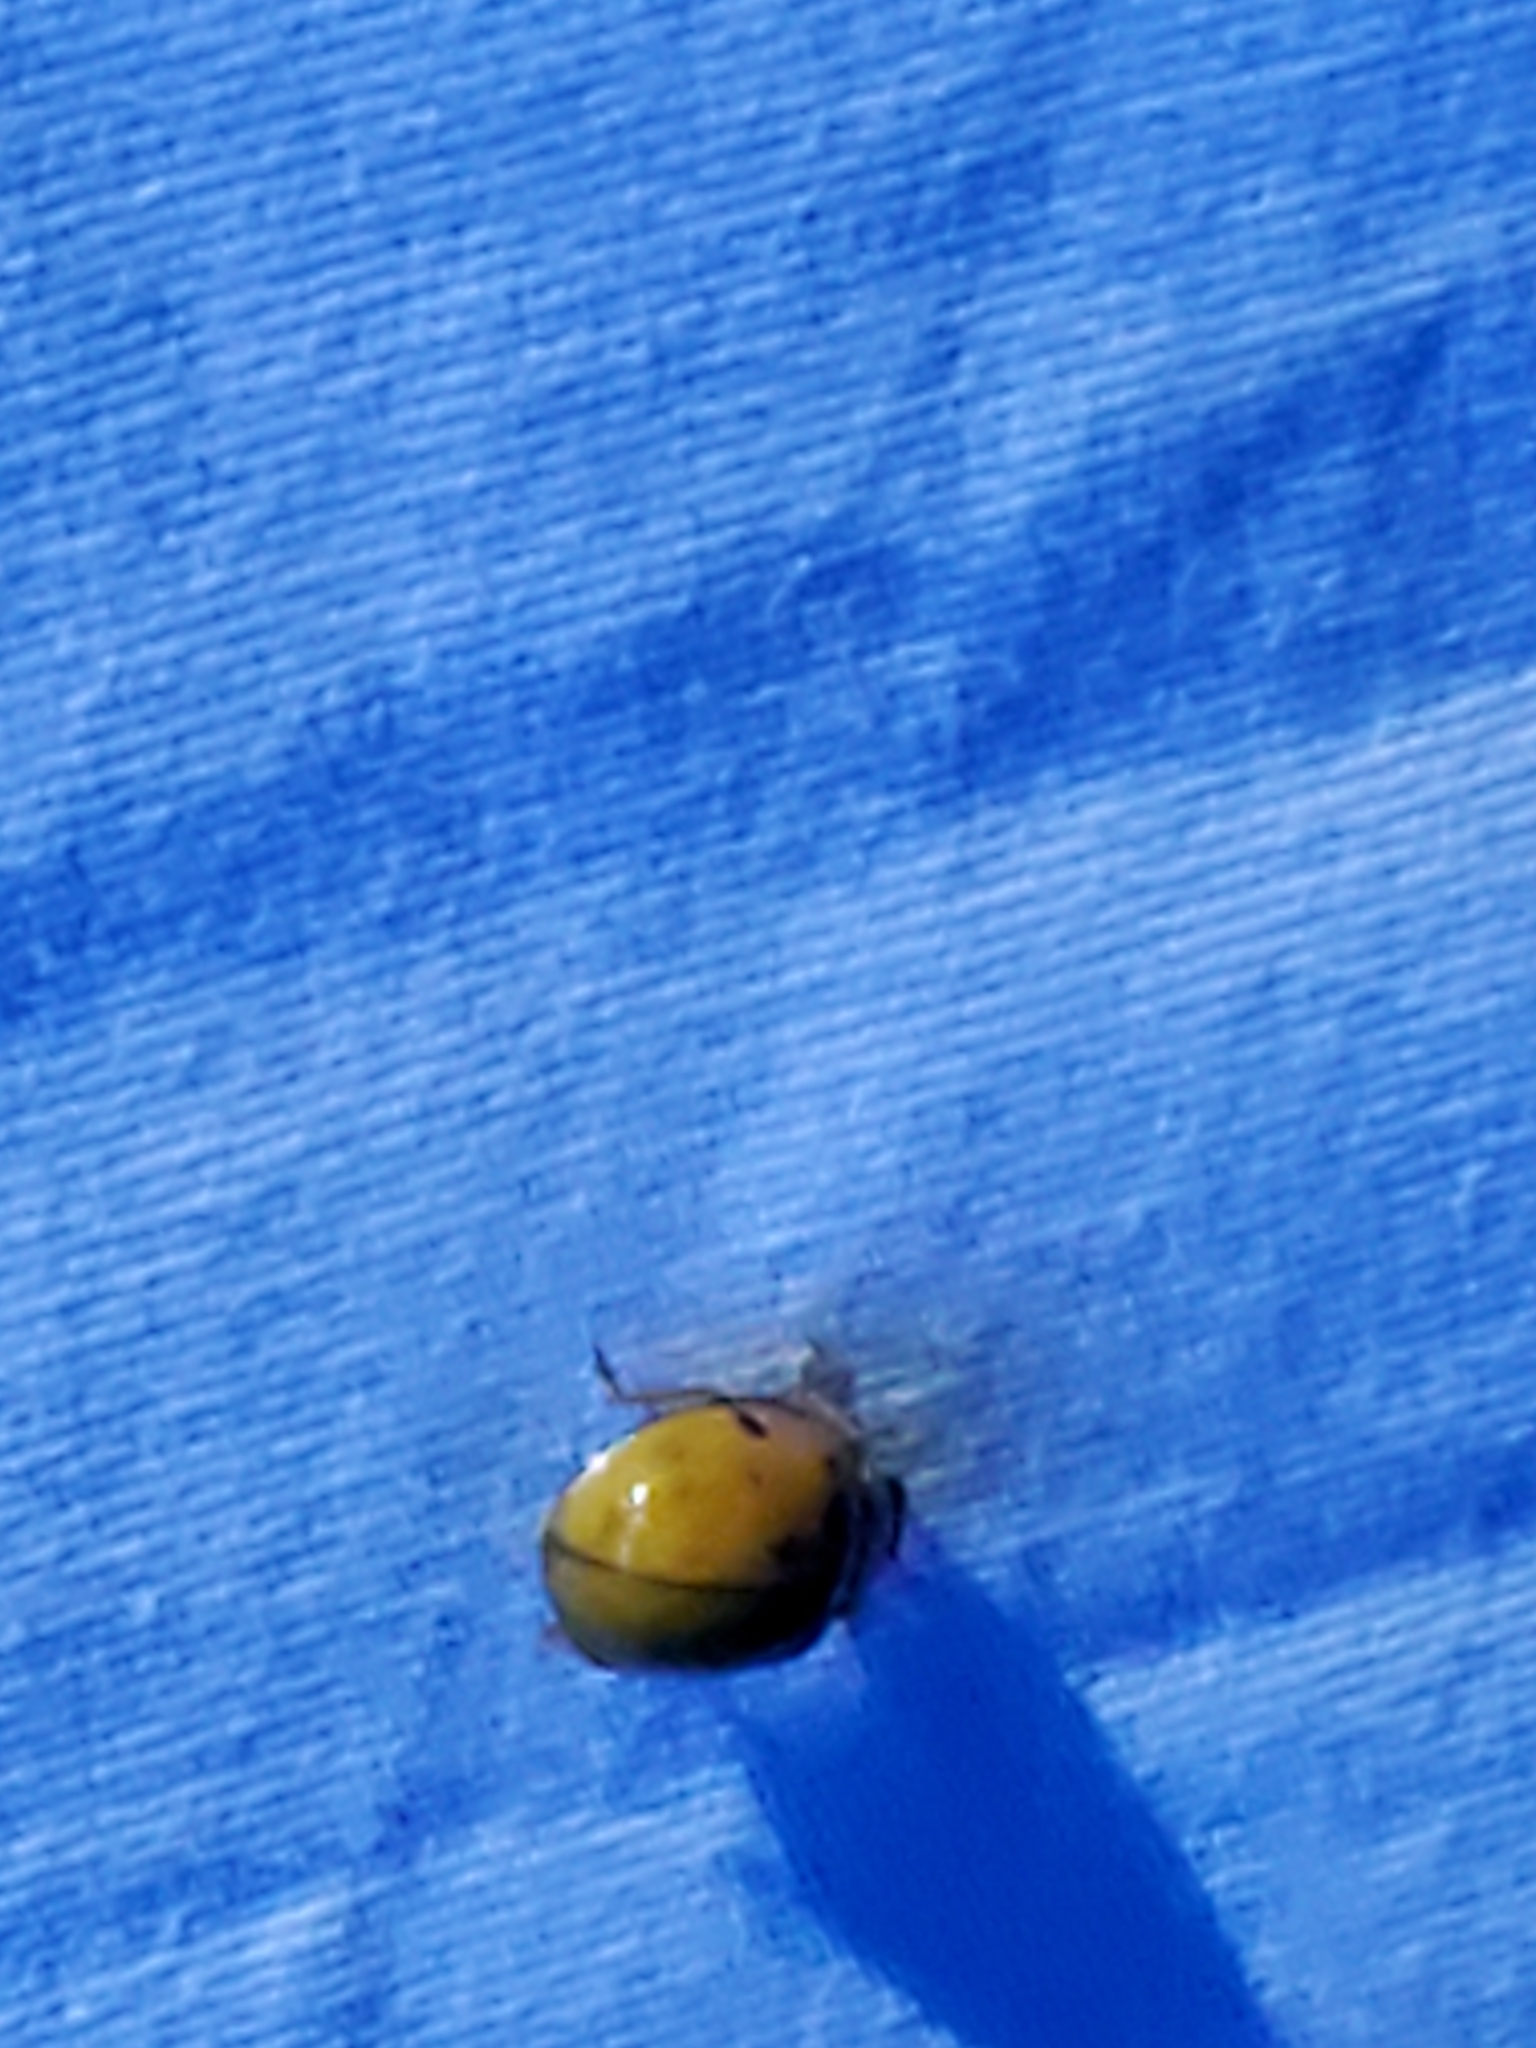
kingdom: Animalia
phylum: Arthropoda
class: Insecta
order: Coleoptera
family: Coccinellidae
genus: Harmonia
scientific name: Harmonia axyridis
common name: Harlequin ladybird
